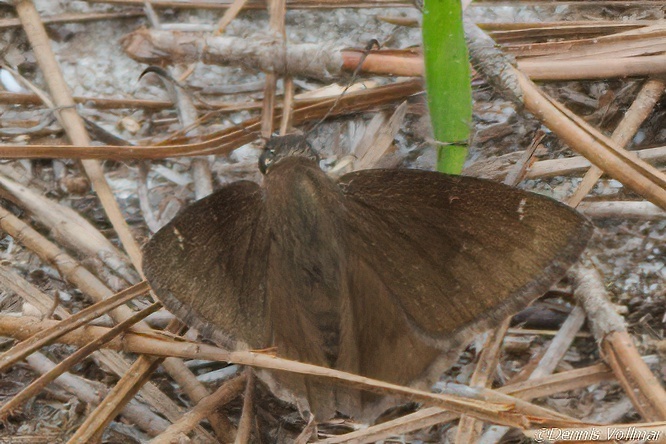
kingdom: Animalia
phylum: Arthropoda
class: Insecta
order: Lepidoptera
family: Hesperiidae
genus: Thorybes
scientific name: Thorybes pylades
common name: Northern cloudywing
